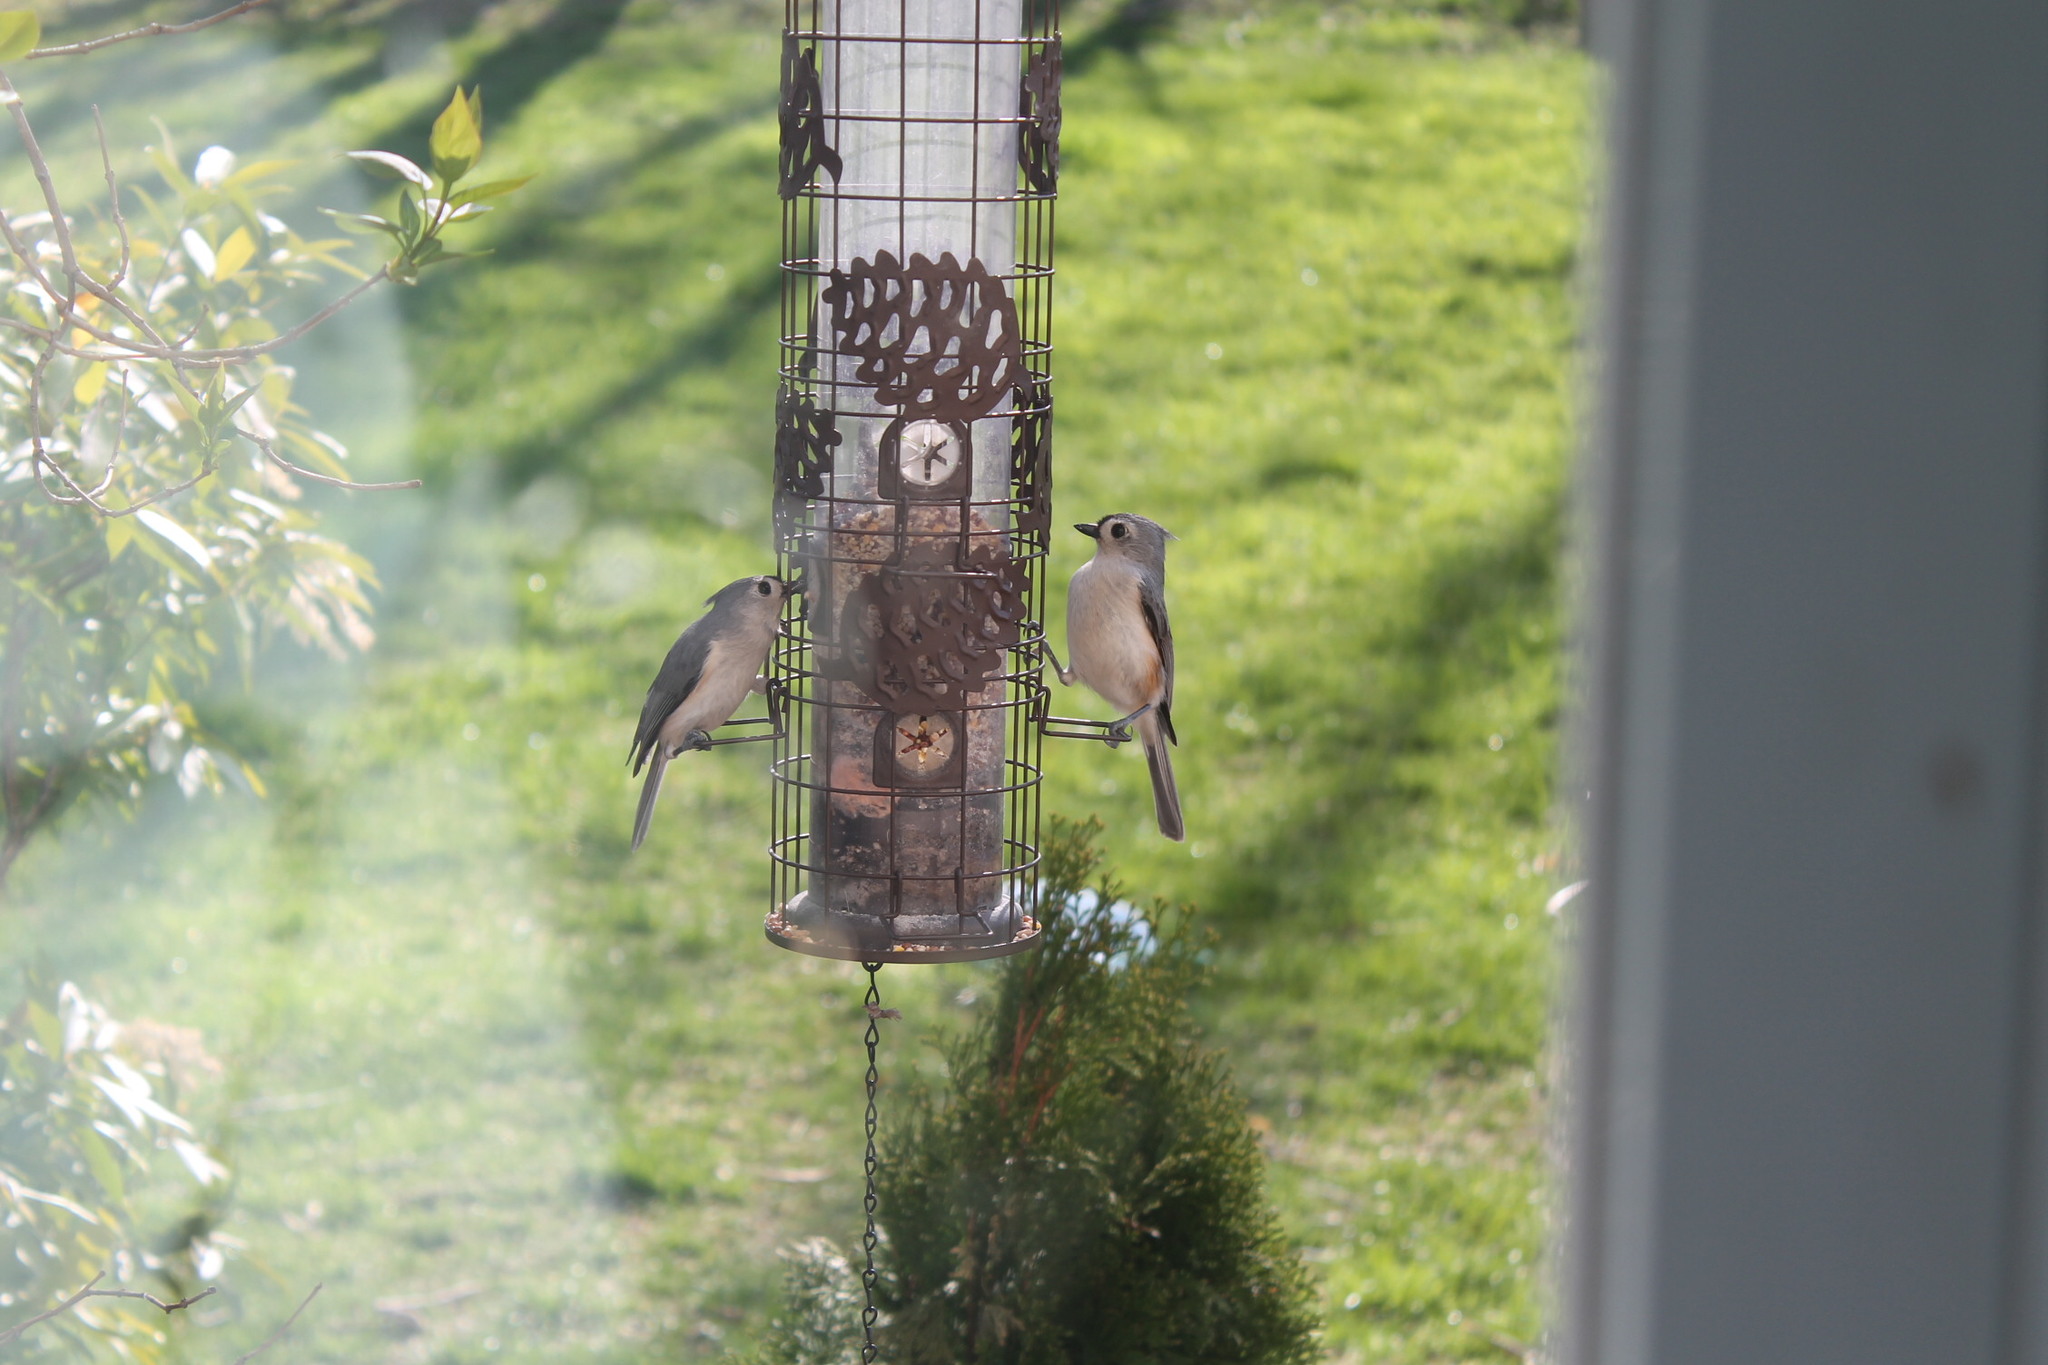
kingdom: Animalia
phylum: Chordata
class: Aves
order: Passeriformes
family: Paridae
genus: Baeolophus
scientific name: Baeolophus bicolor
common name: Tufted titmouse
